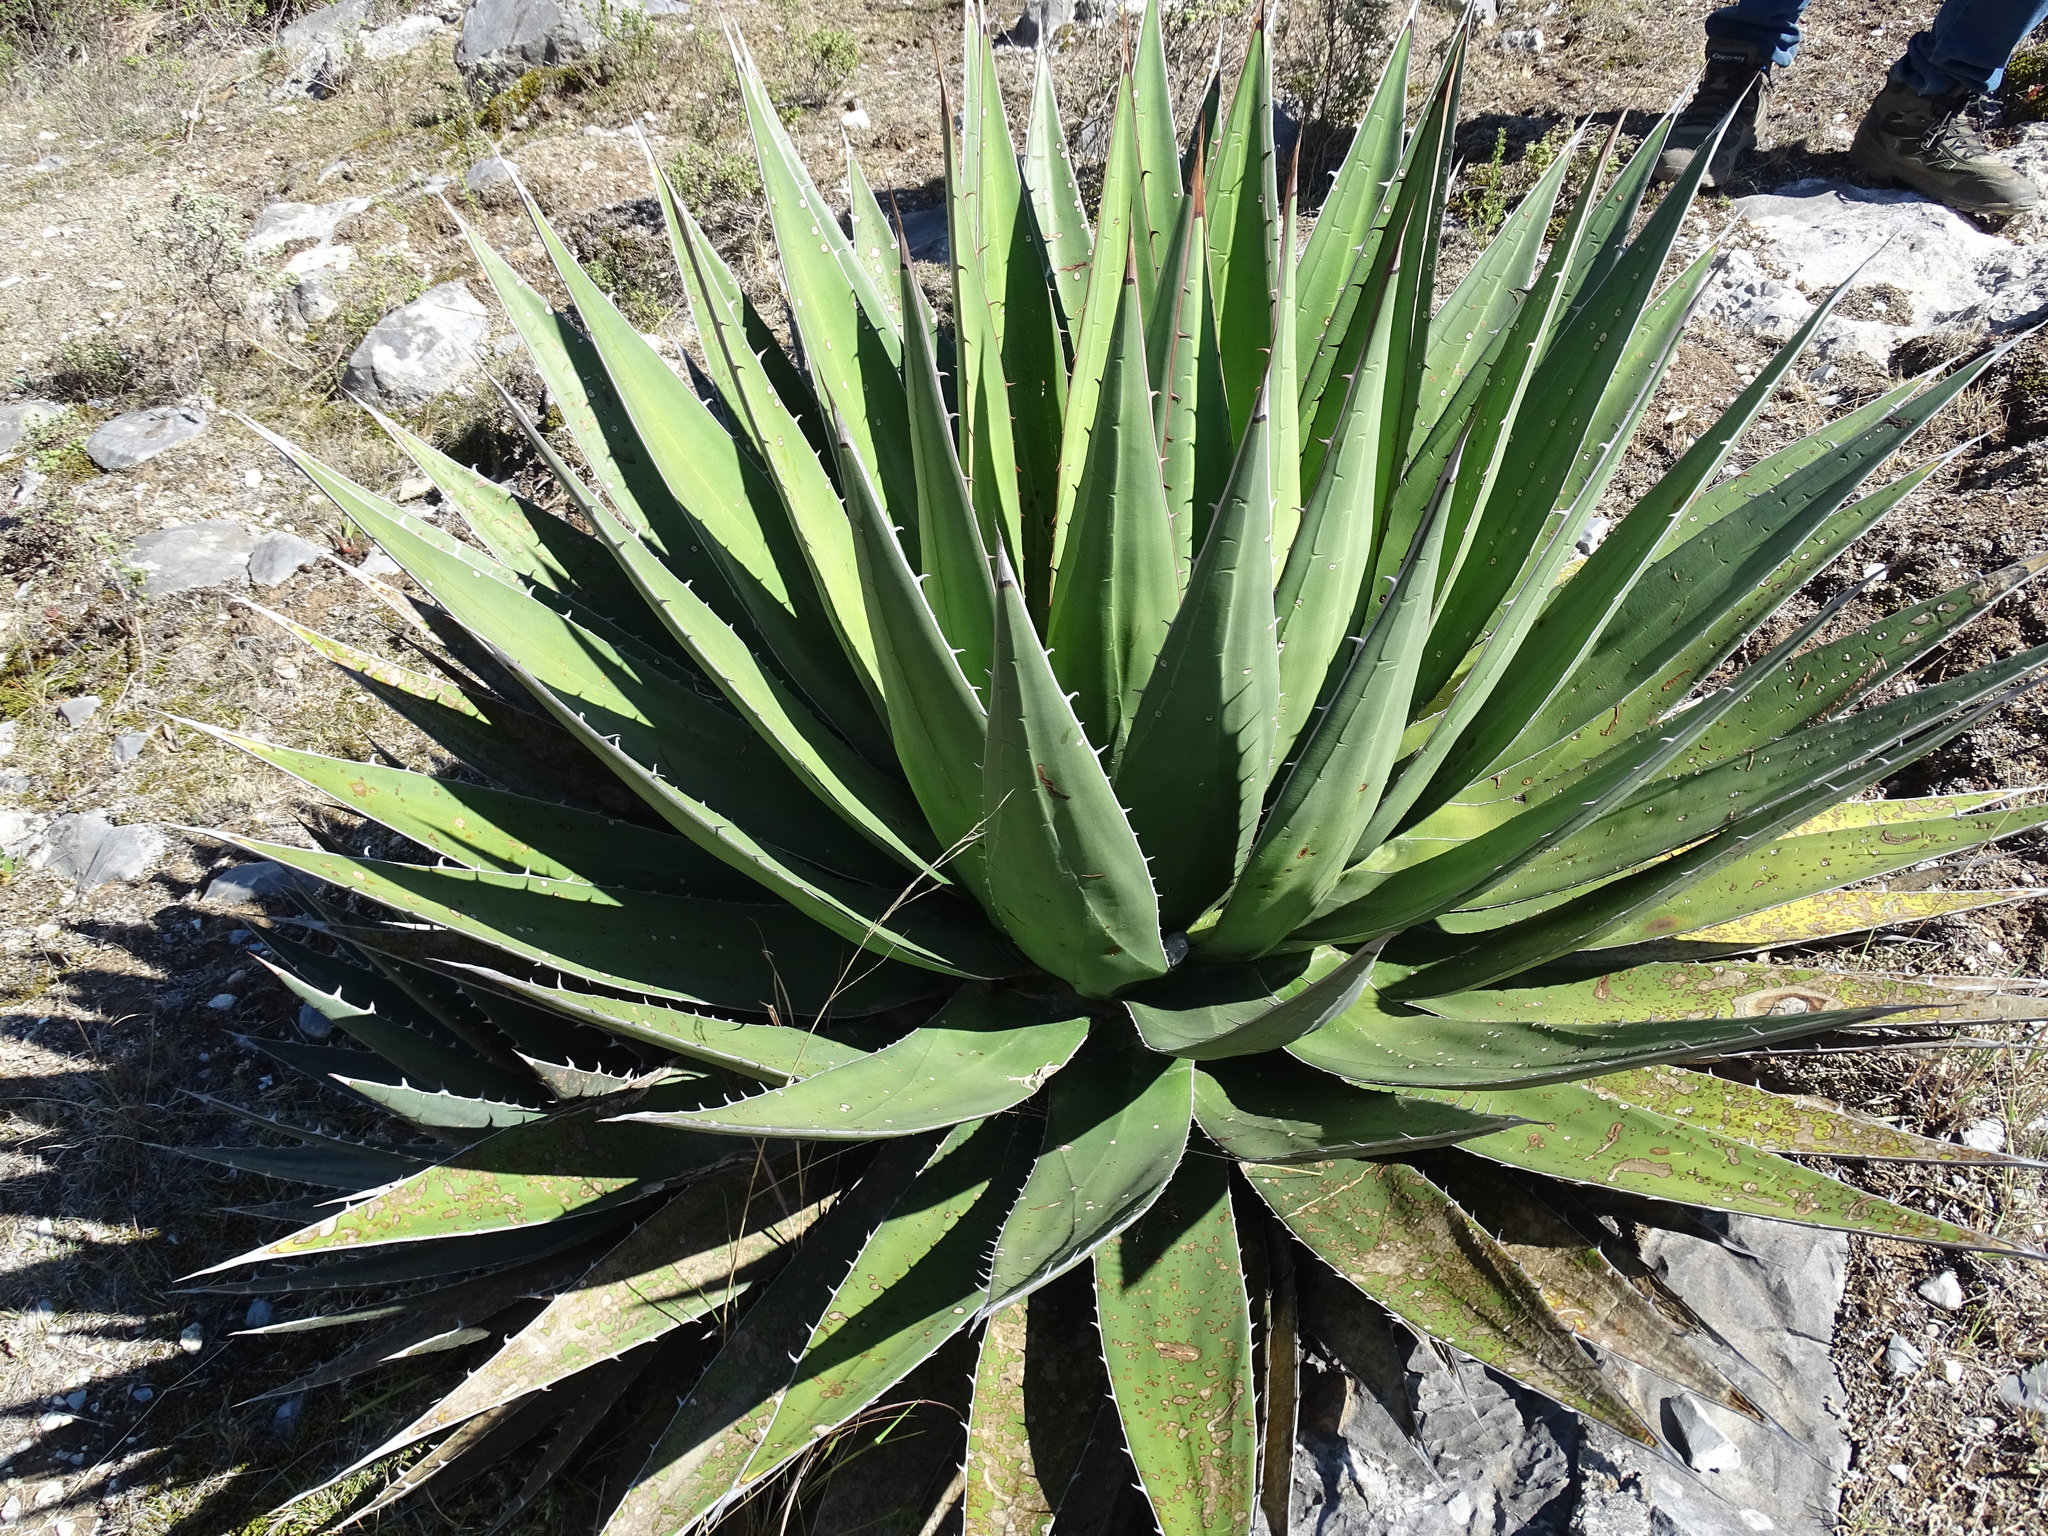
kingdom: Plantae
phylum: Tracheophyta
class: Liliopsida
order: Asparagales
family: Asparagaceae
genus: Agave
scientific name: Agave kerchovei
